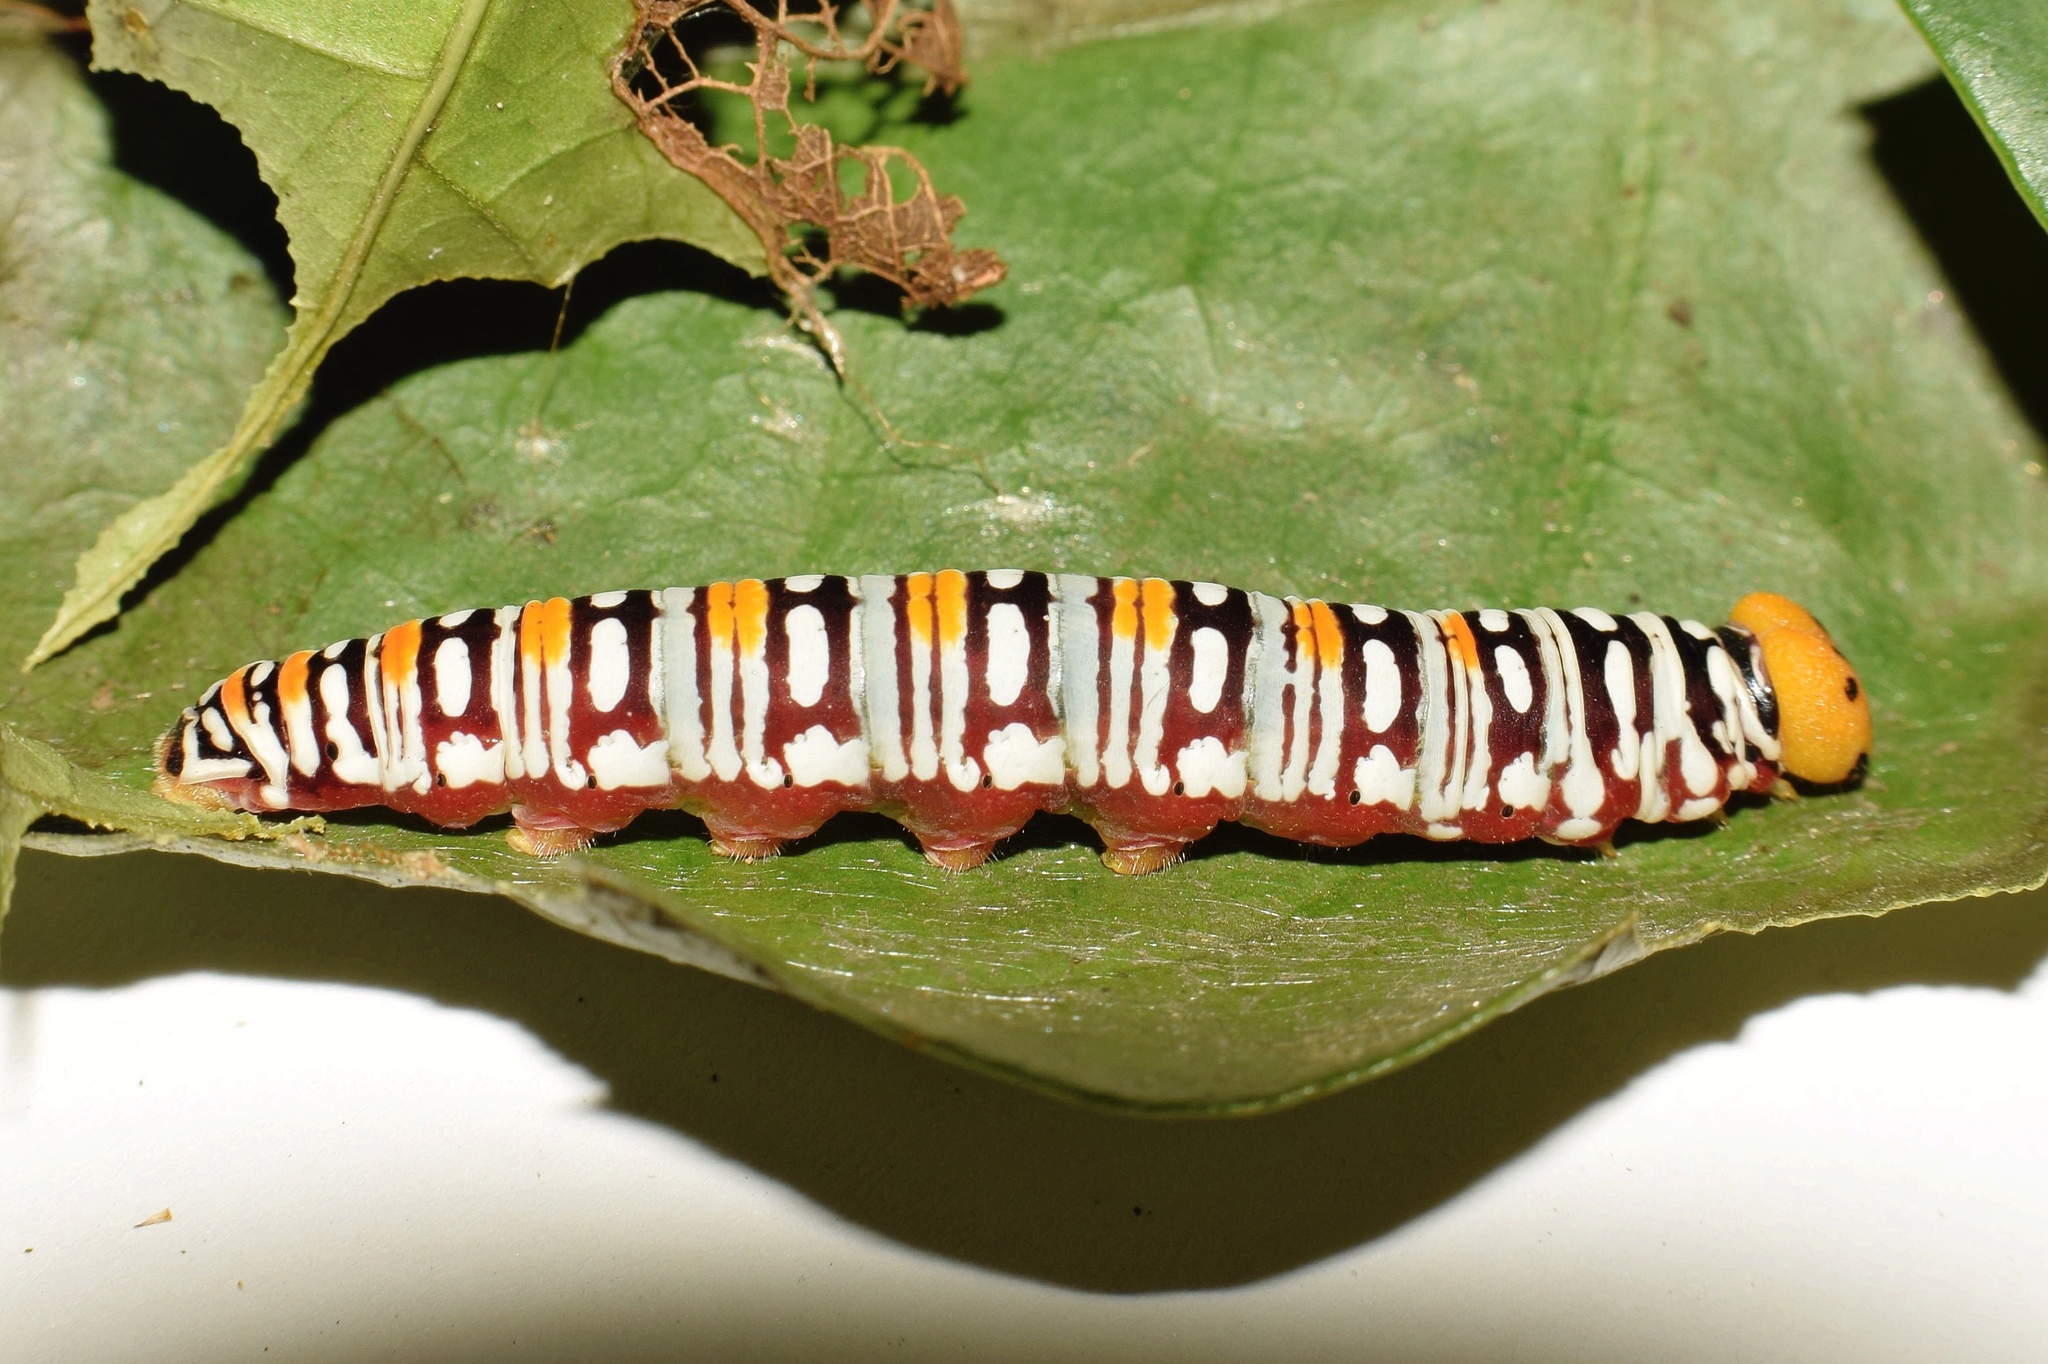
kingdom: Animalia
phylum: Arthropoda
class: Insecta
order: Lepidoptera
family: Hesperiidae
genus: Coeliades
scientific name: Coeliades keithloa
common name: Red-tab policeman
